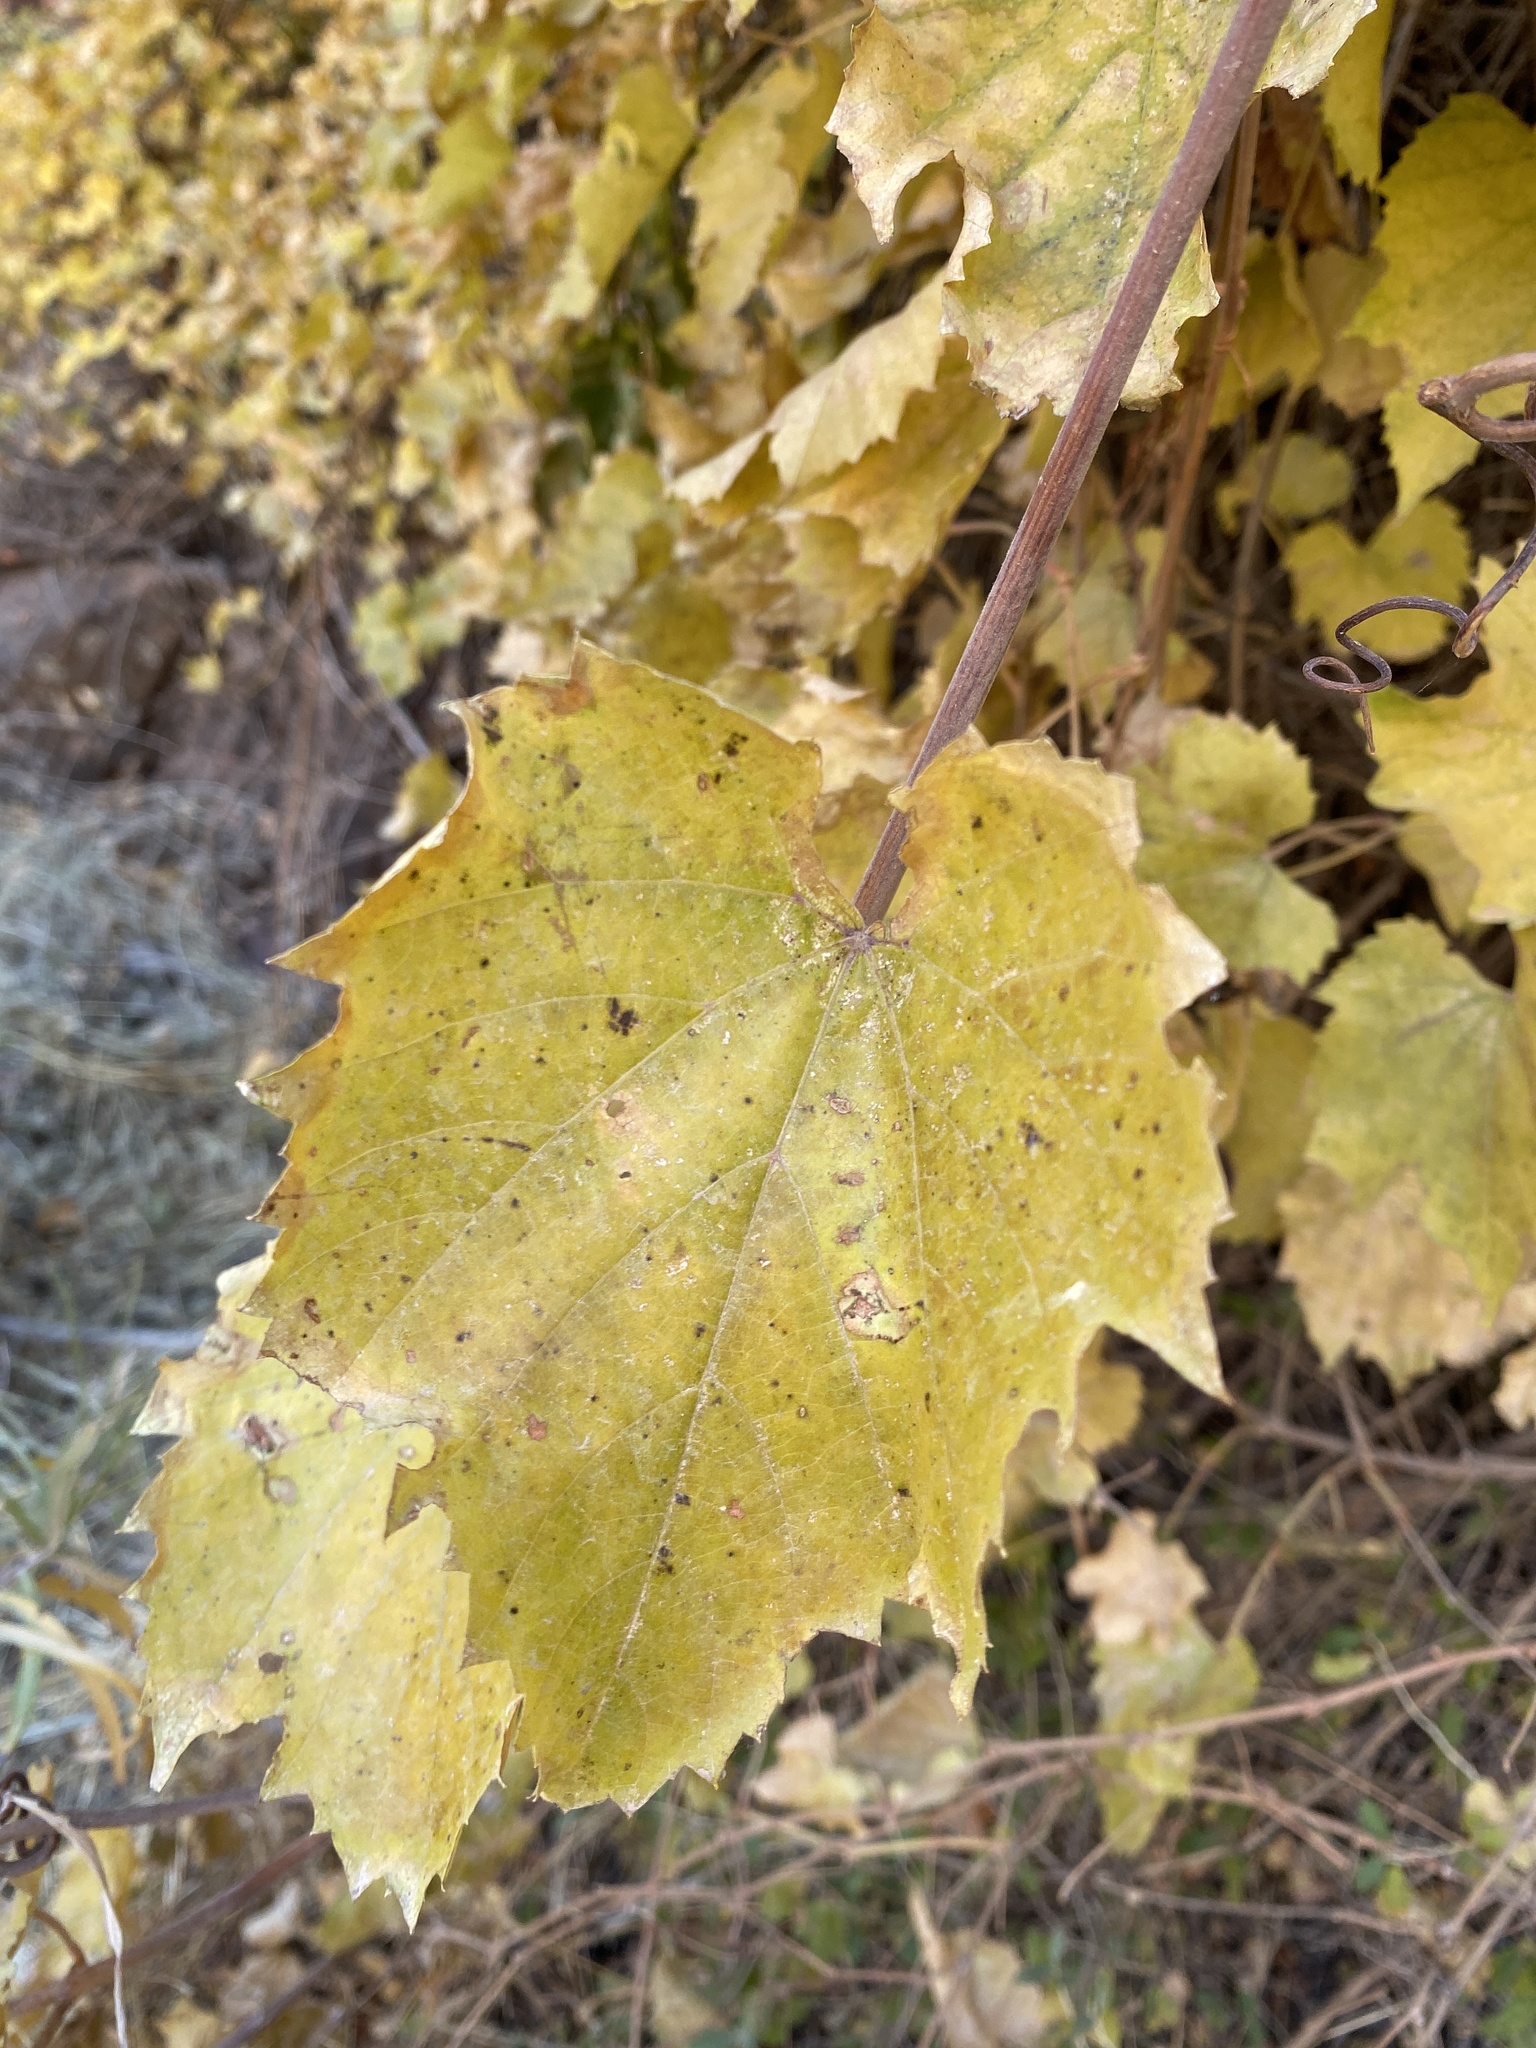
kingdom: Plantae
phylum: Tracheophyta
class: Magnoliopsida
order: Vitales
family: Vitaceae
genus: Vitis
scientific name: Vitis arizonica
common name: Canyon grape
